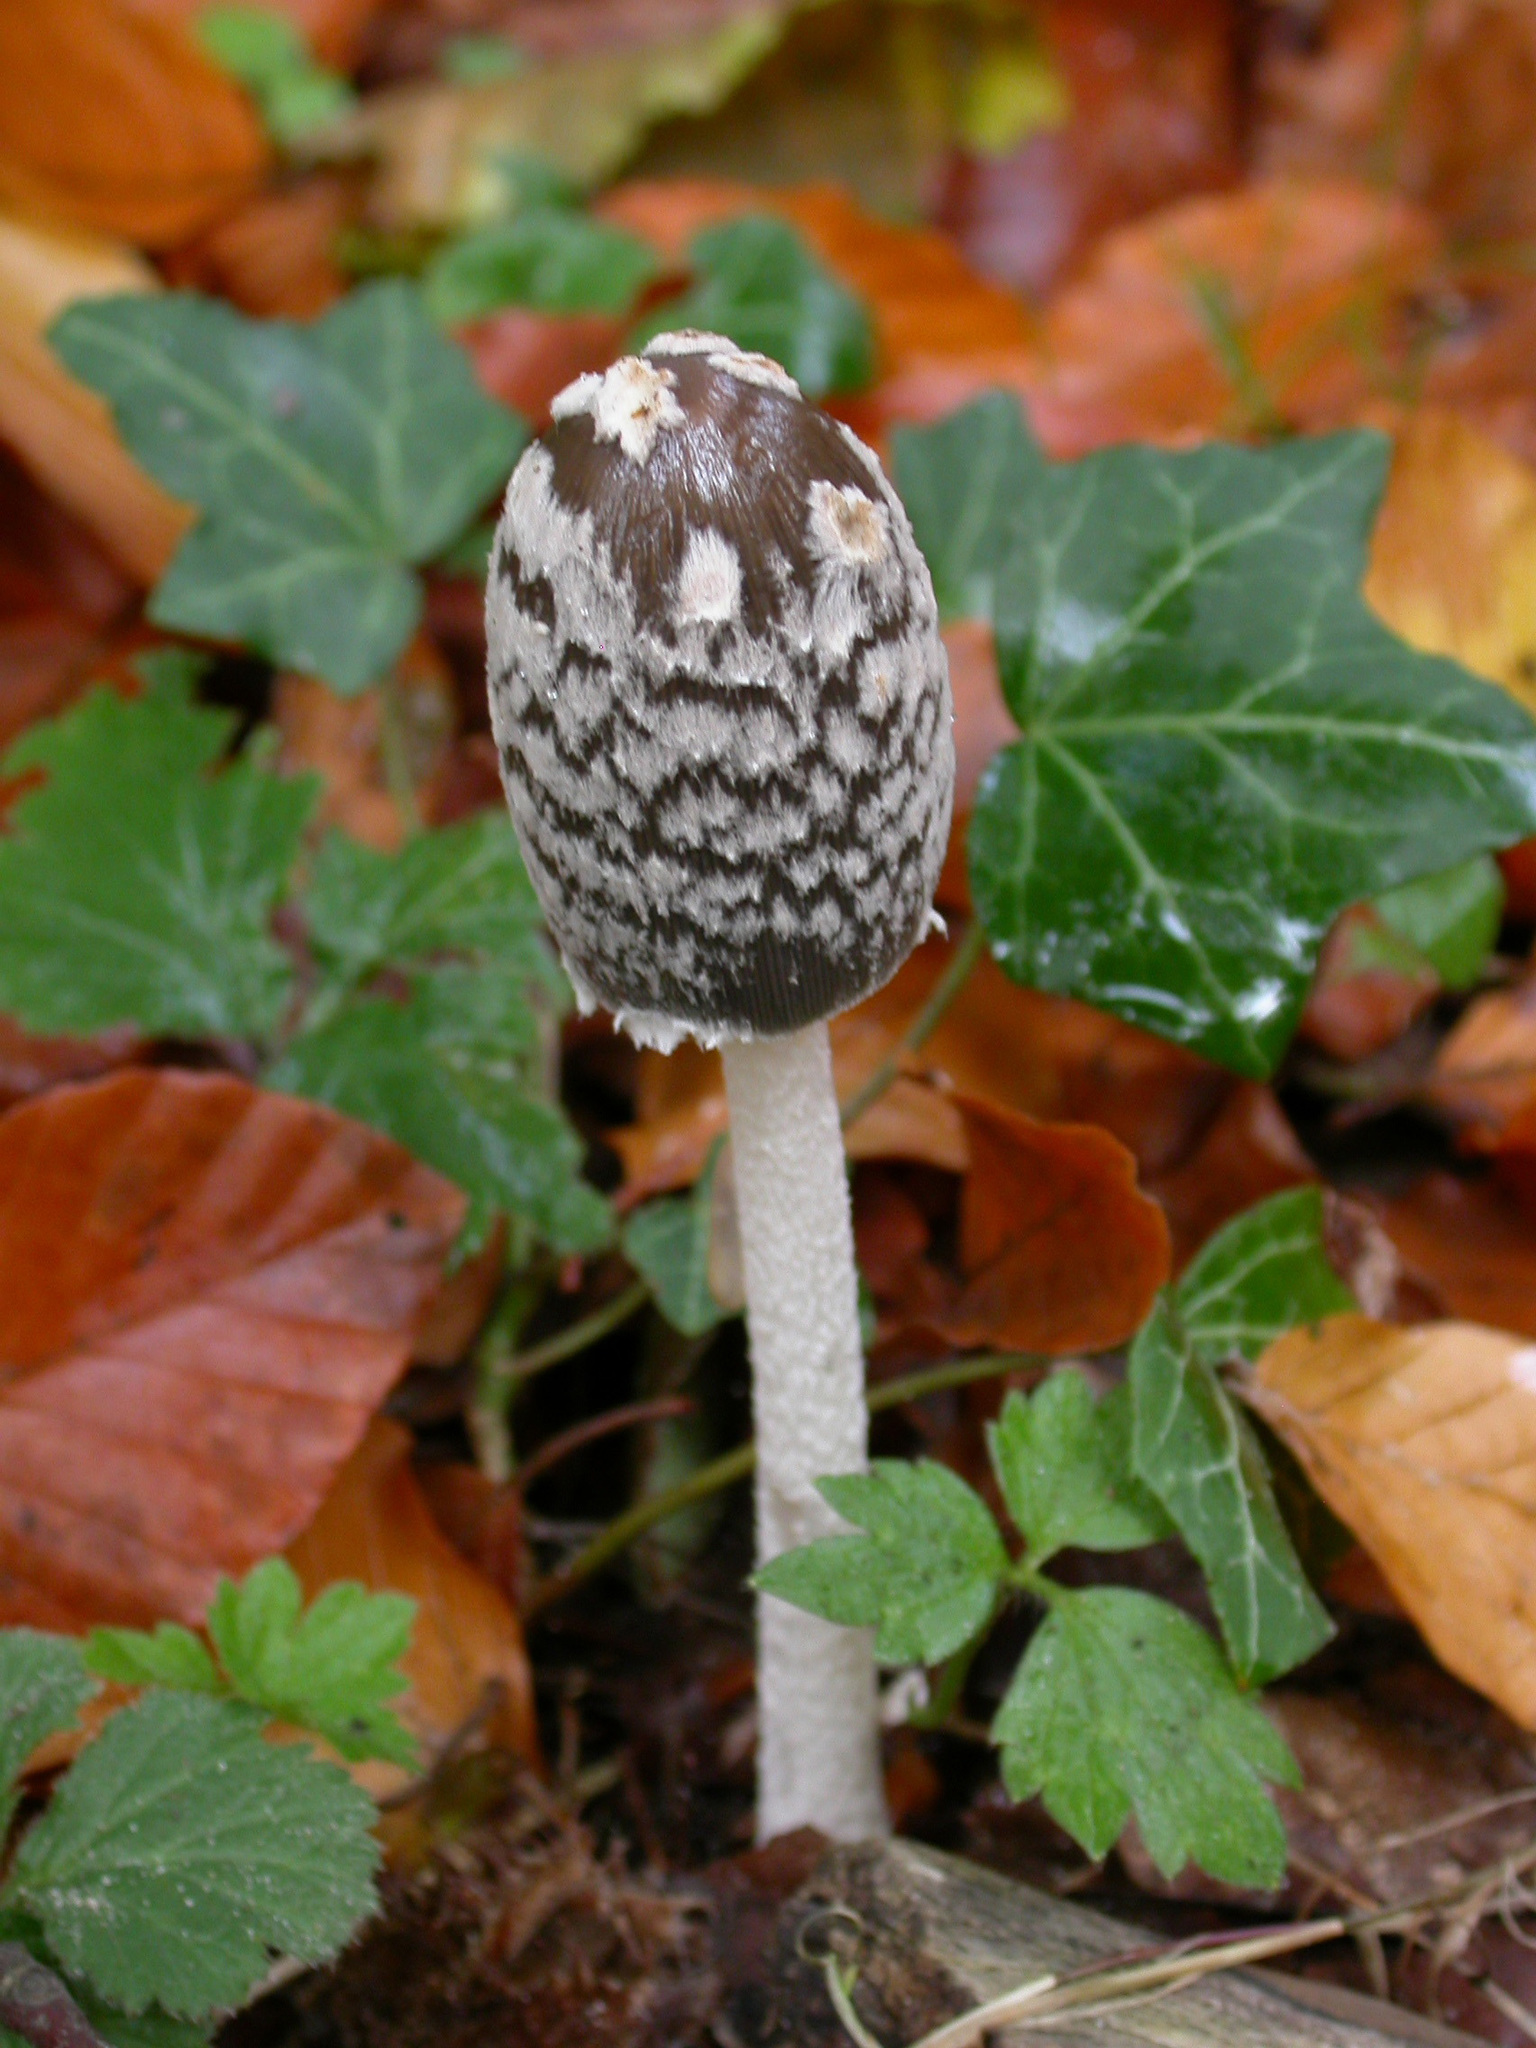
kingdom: Fungi
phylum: Basidiomycota
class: Agaricomycetes
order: Agaricales
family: Psathyrellaceae
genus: Coprinopsis
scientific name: Coprinopsis picacea
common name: Magpie inkcap
